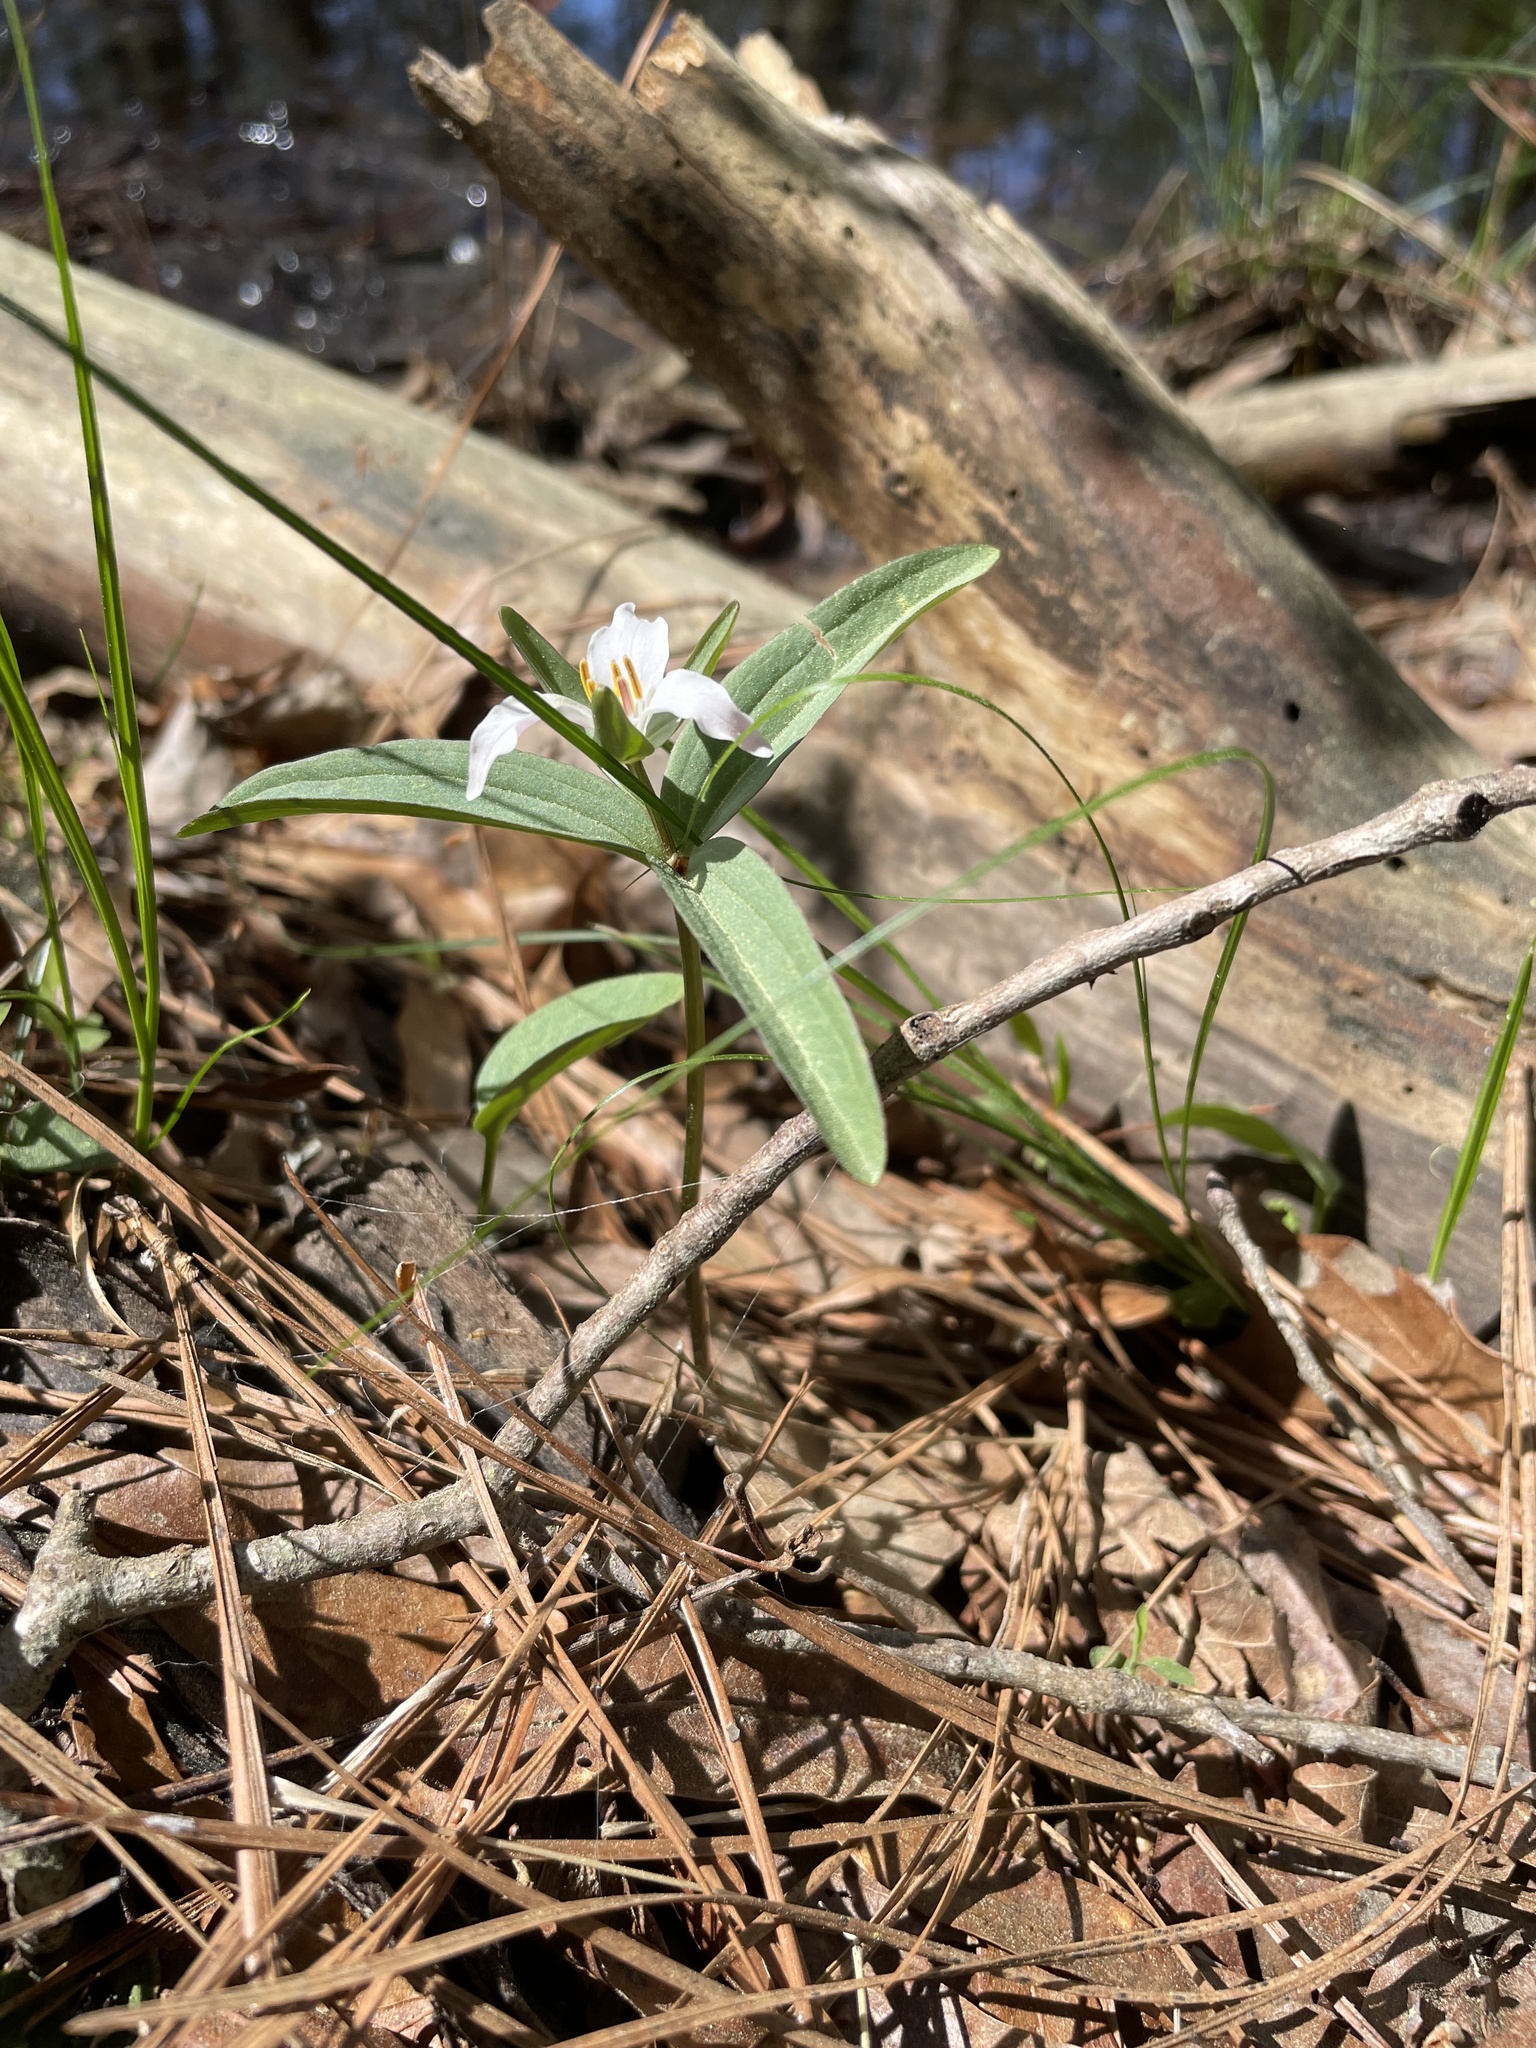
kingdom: Plantae
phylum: Tracheophyta
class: Liliopsida
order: Liliales
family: Melanthiaceae
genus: Trillium
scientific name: Trillium pusillum
